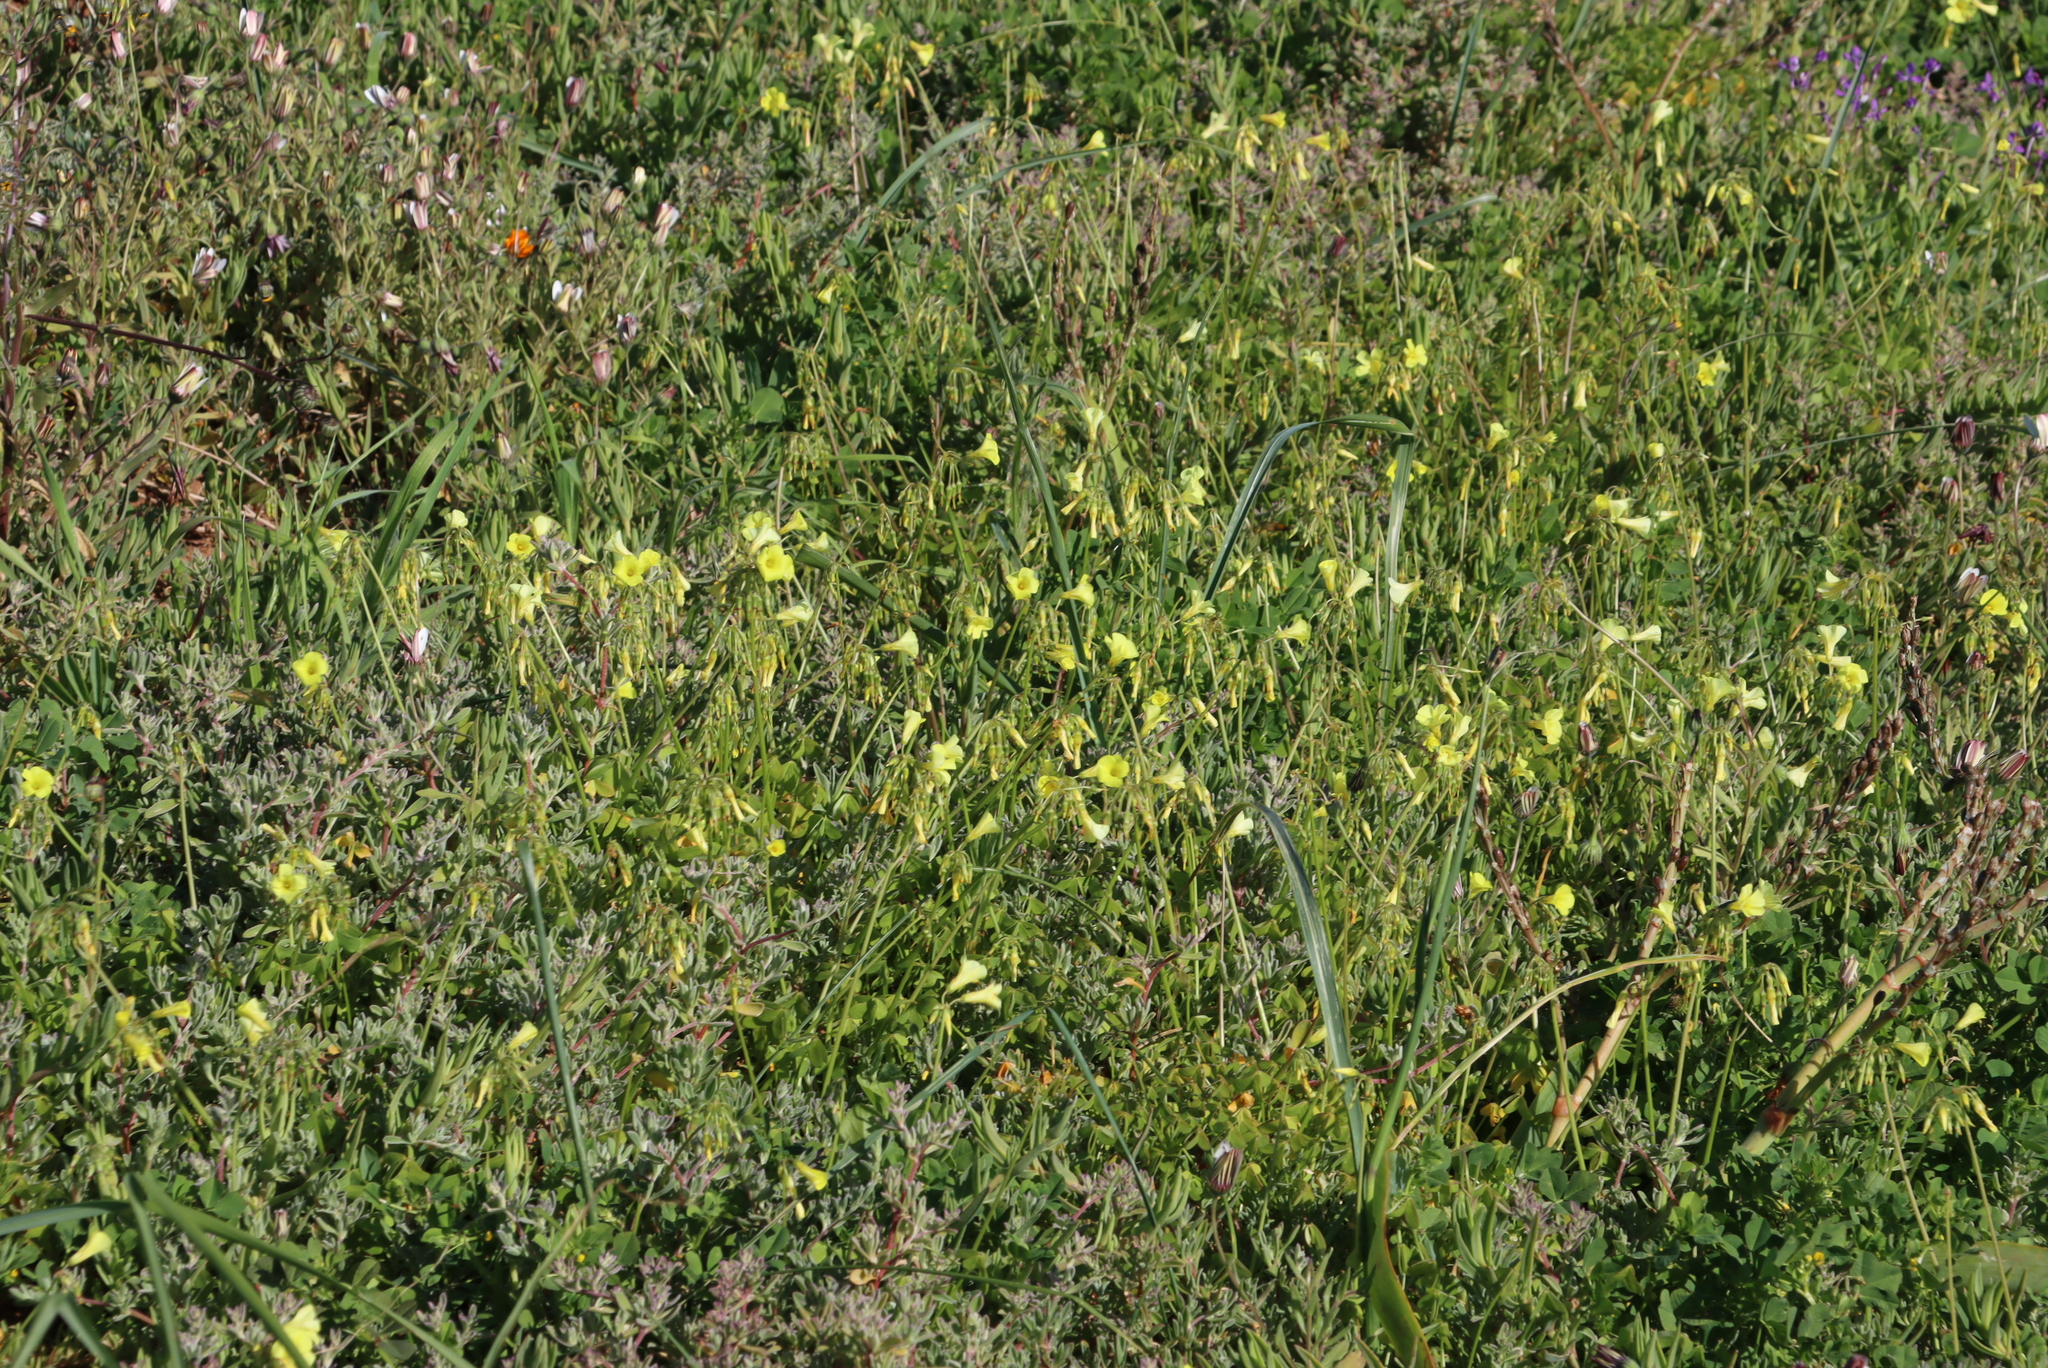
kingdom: Plantae
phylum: Tracheophyta
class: Magnoliopsida
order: Oxalidales
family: Oxalidaceae
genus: Oxalis
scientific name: Oxalis pes-caprae
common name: Bermuda-buttercup
